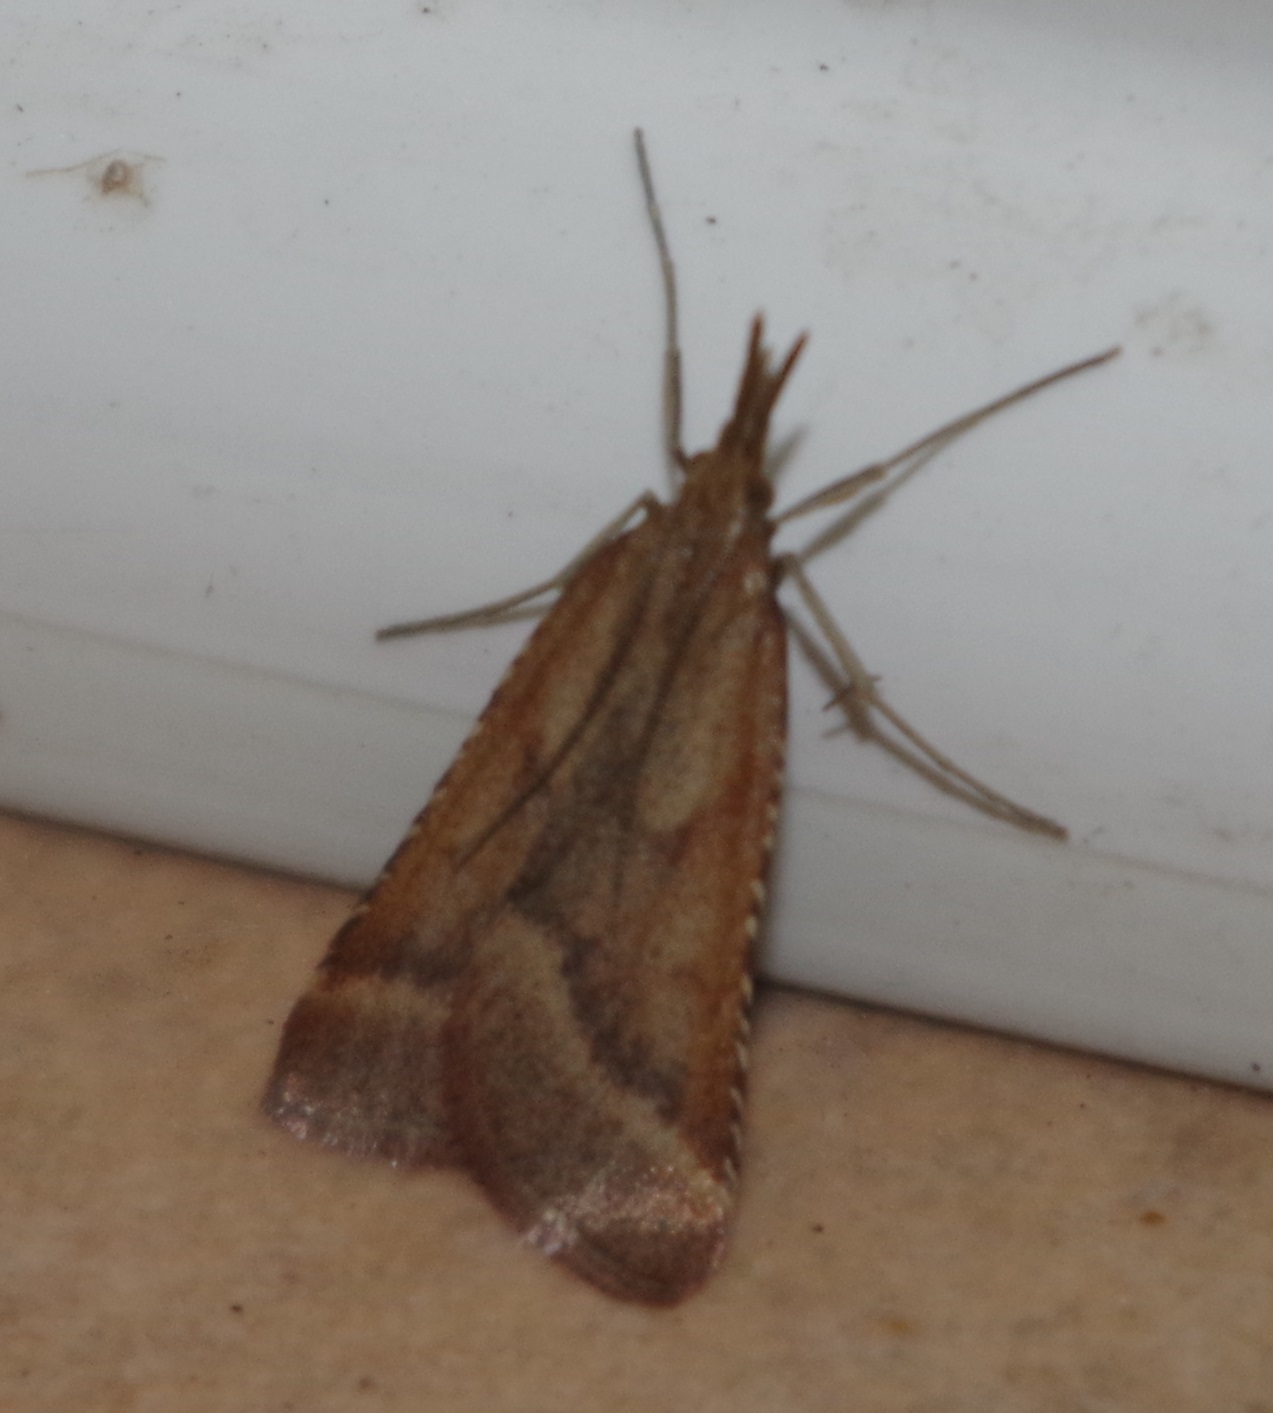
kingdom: Animalia
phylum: Arthropoda
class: Insecta
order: Lepidoptera
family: Pyralidae
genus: Synaphe
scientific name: Synaphe punctalis
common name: Long-legged tabby
